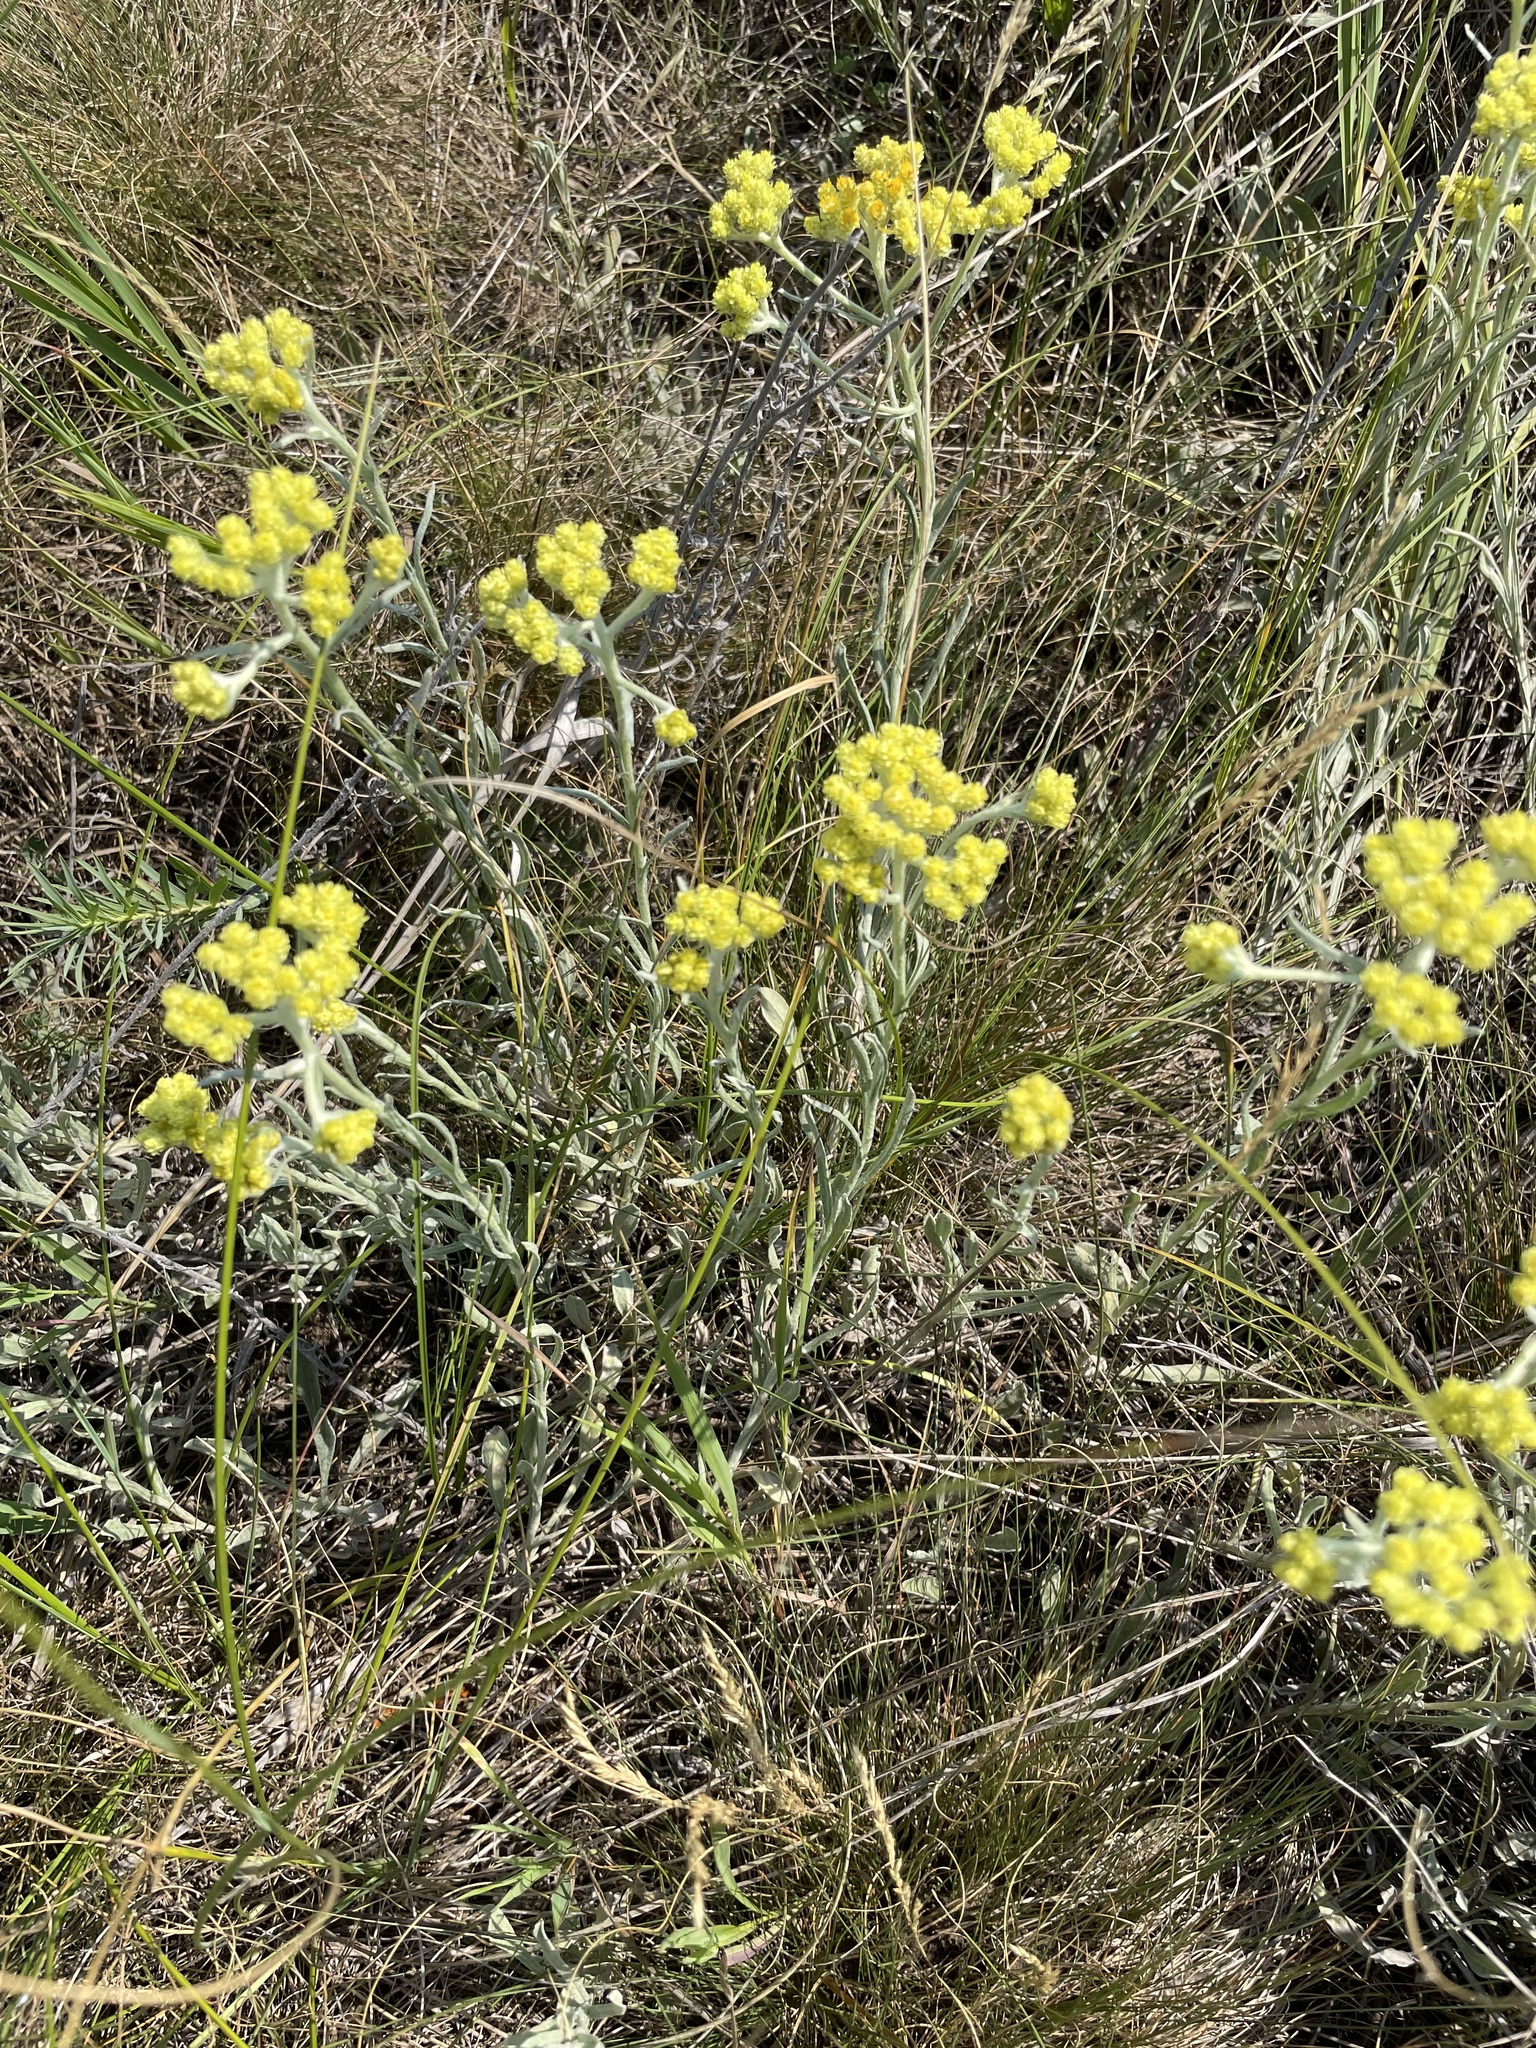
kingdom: Plantae
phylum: Tracheophyta
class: Magnoliopsida
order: Asterales
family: Asteraceae
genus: Helichrysum
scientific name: Helichrysum arenarium
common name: Strawflower
